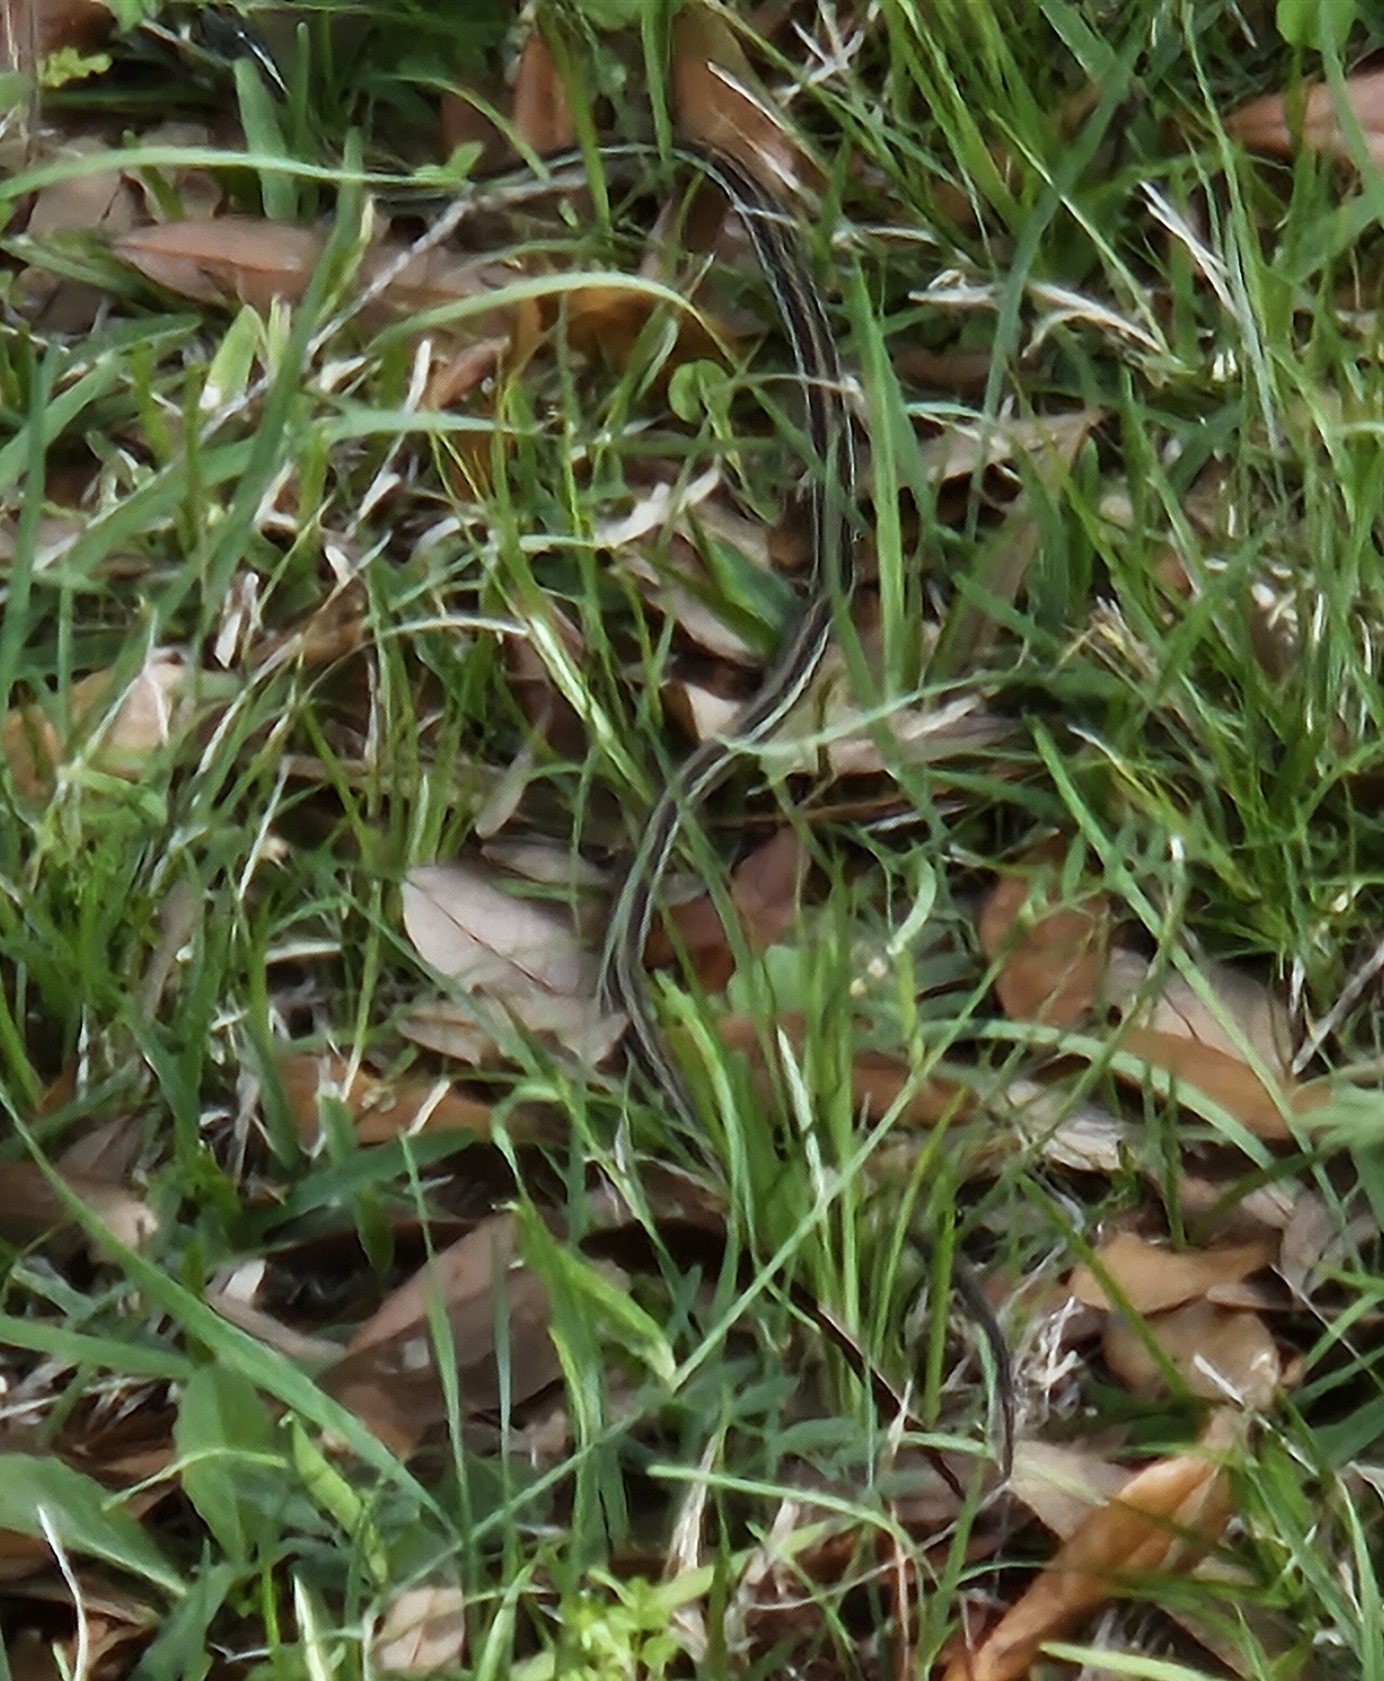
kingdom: Animalia
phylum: Chordata
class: Squamata
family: Colubridae
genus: Thamnophis
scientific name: Thamnophis proximus
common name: Western ribbon snake
